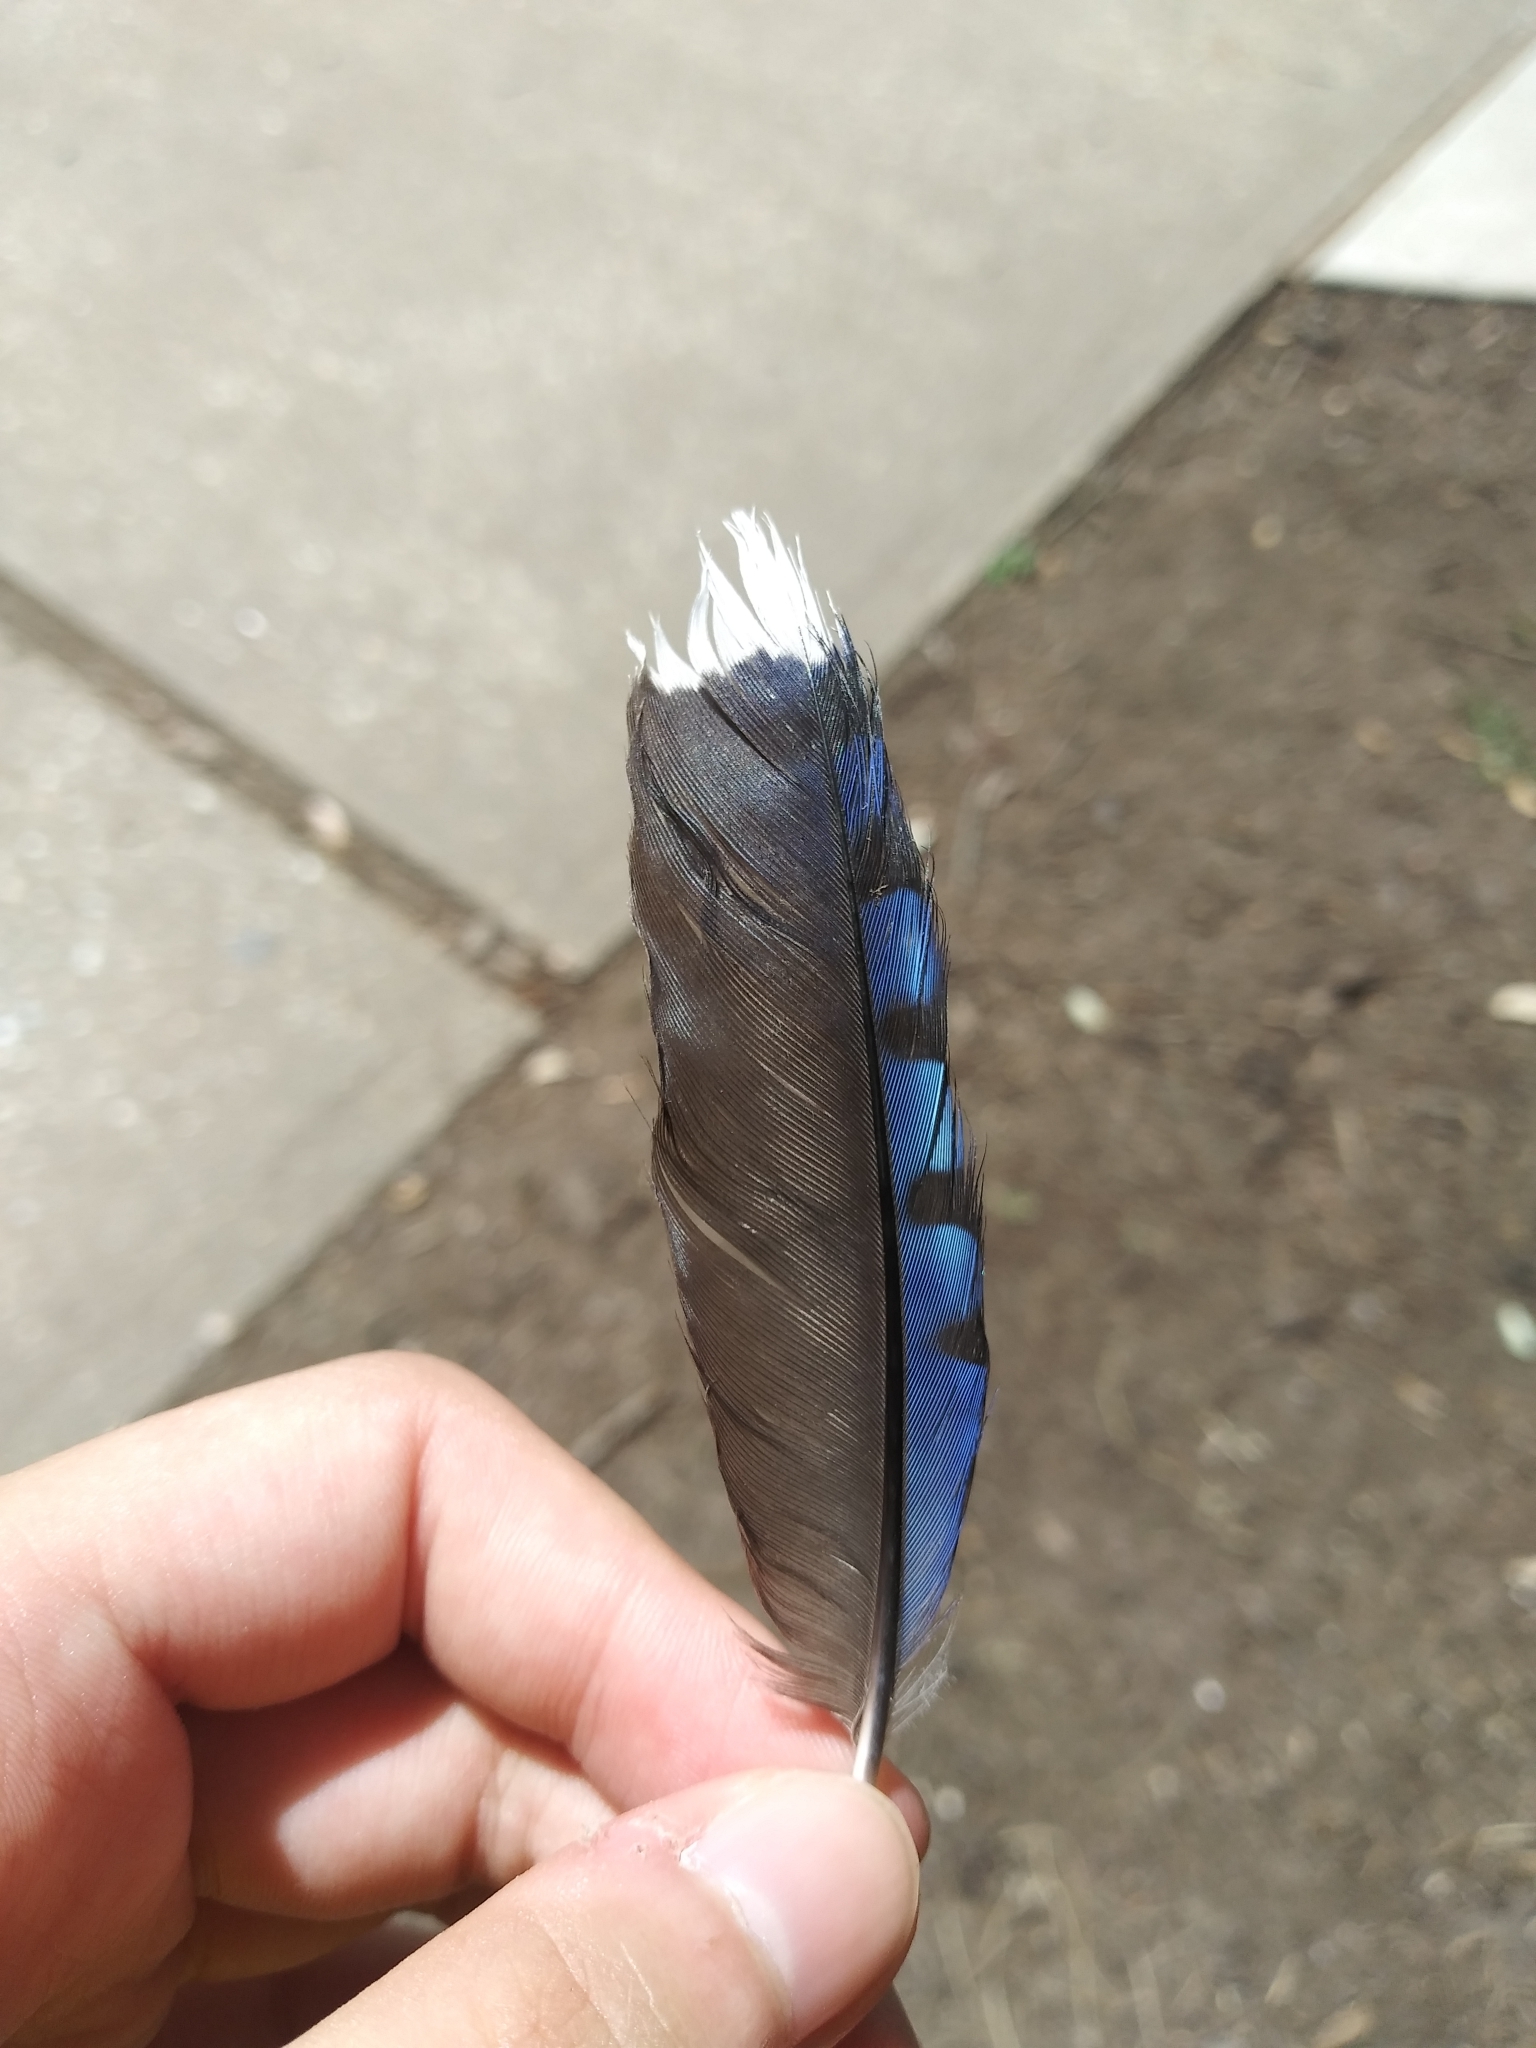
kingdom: Animalia
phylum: Chordata
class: Aves
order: Passeriformes
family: Corvidae
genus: Cyanocitta
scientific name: Cyanocitta cristata
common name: Blue jay
